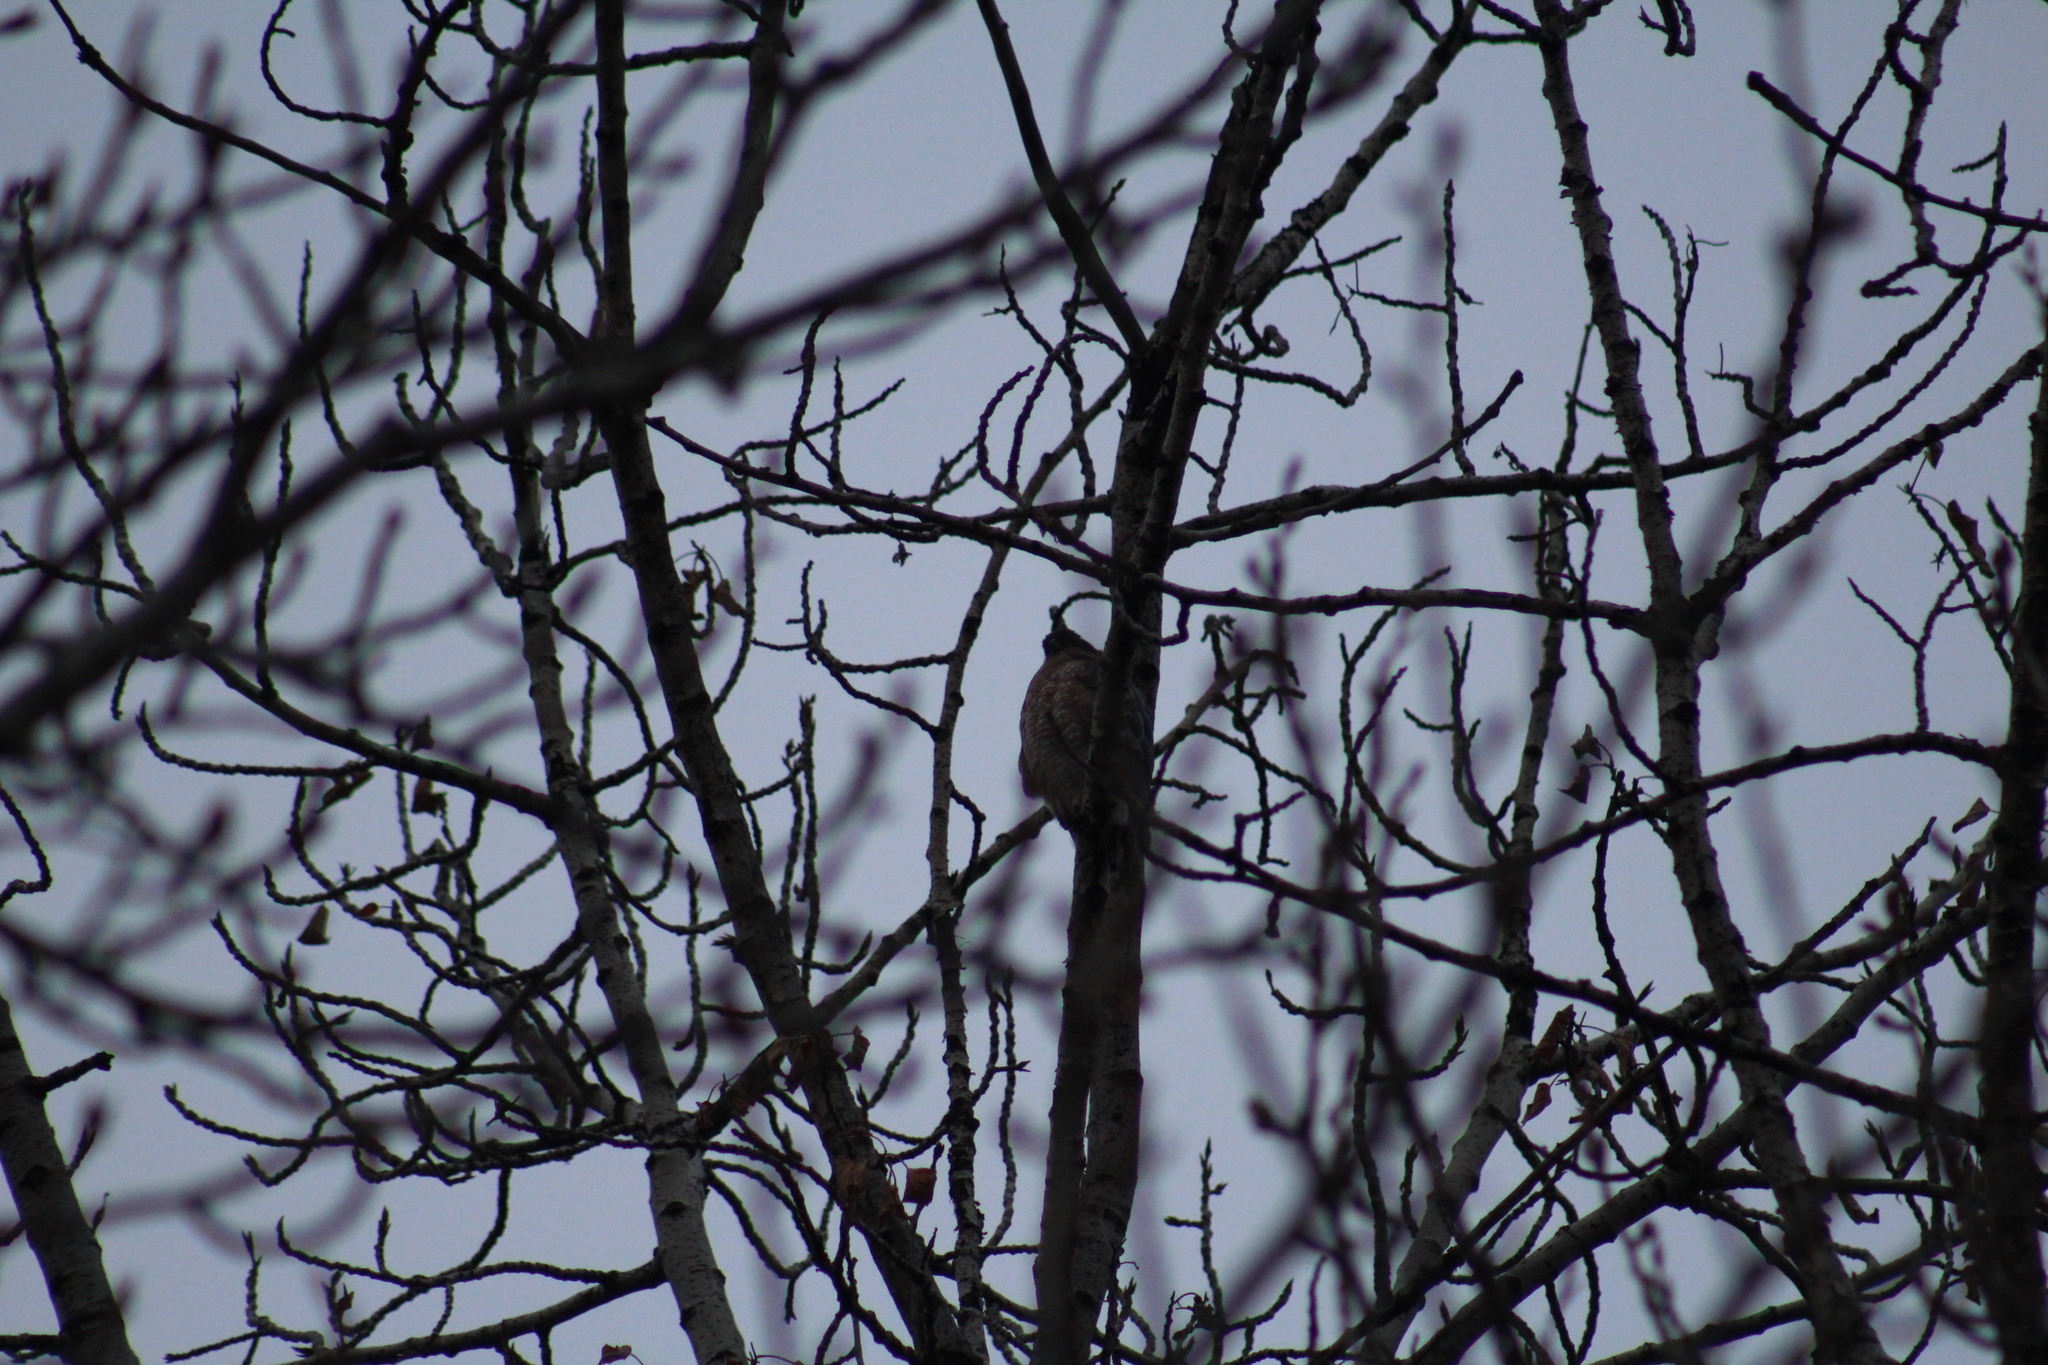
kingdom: Animalia
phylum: Chordata
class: Aves
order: Accipitriformes
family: Accipitridae
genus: Accipiter
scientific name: Accipiter cooperii
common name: Cooper's hawk
